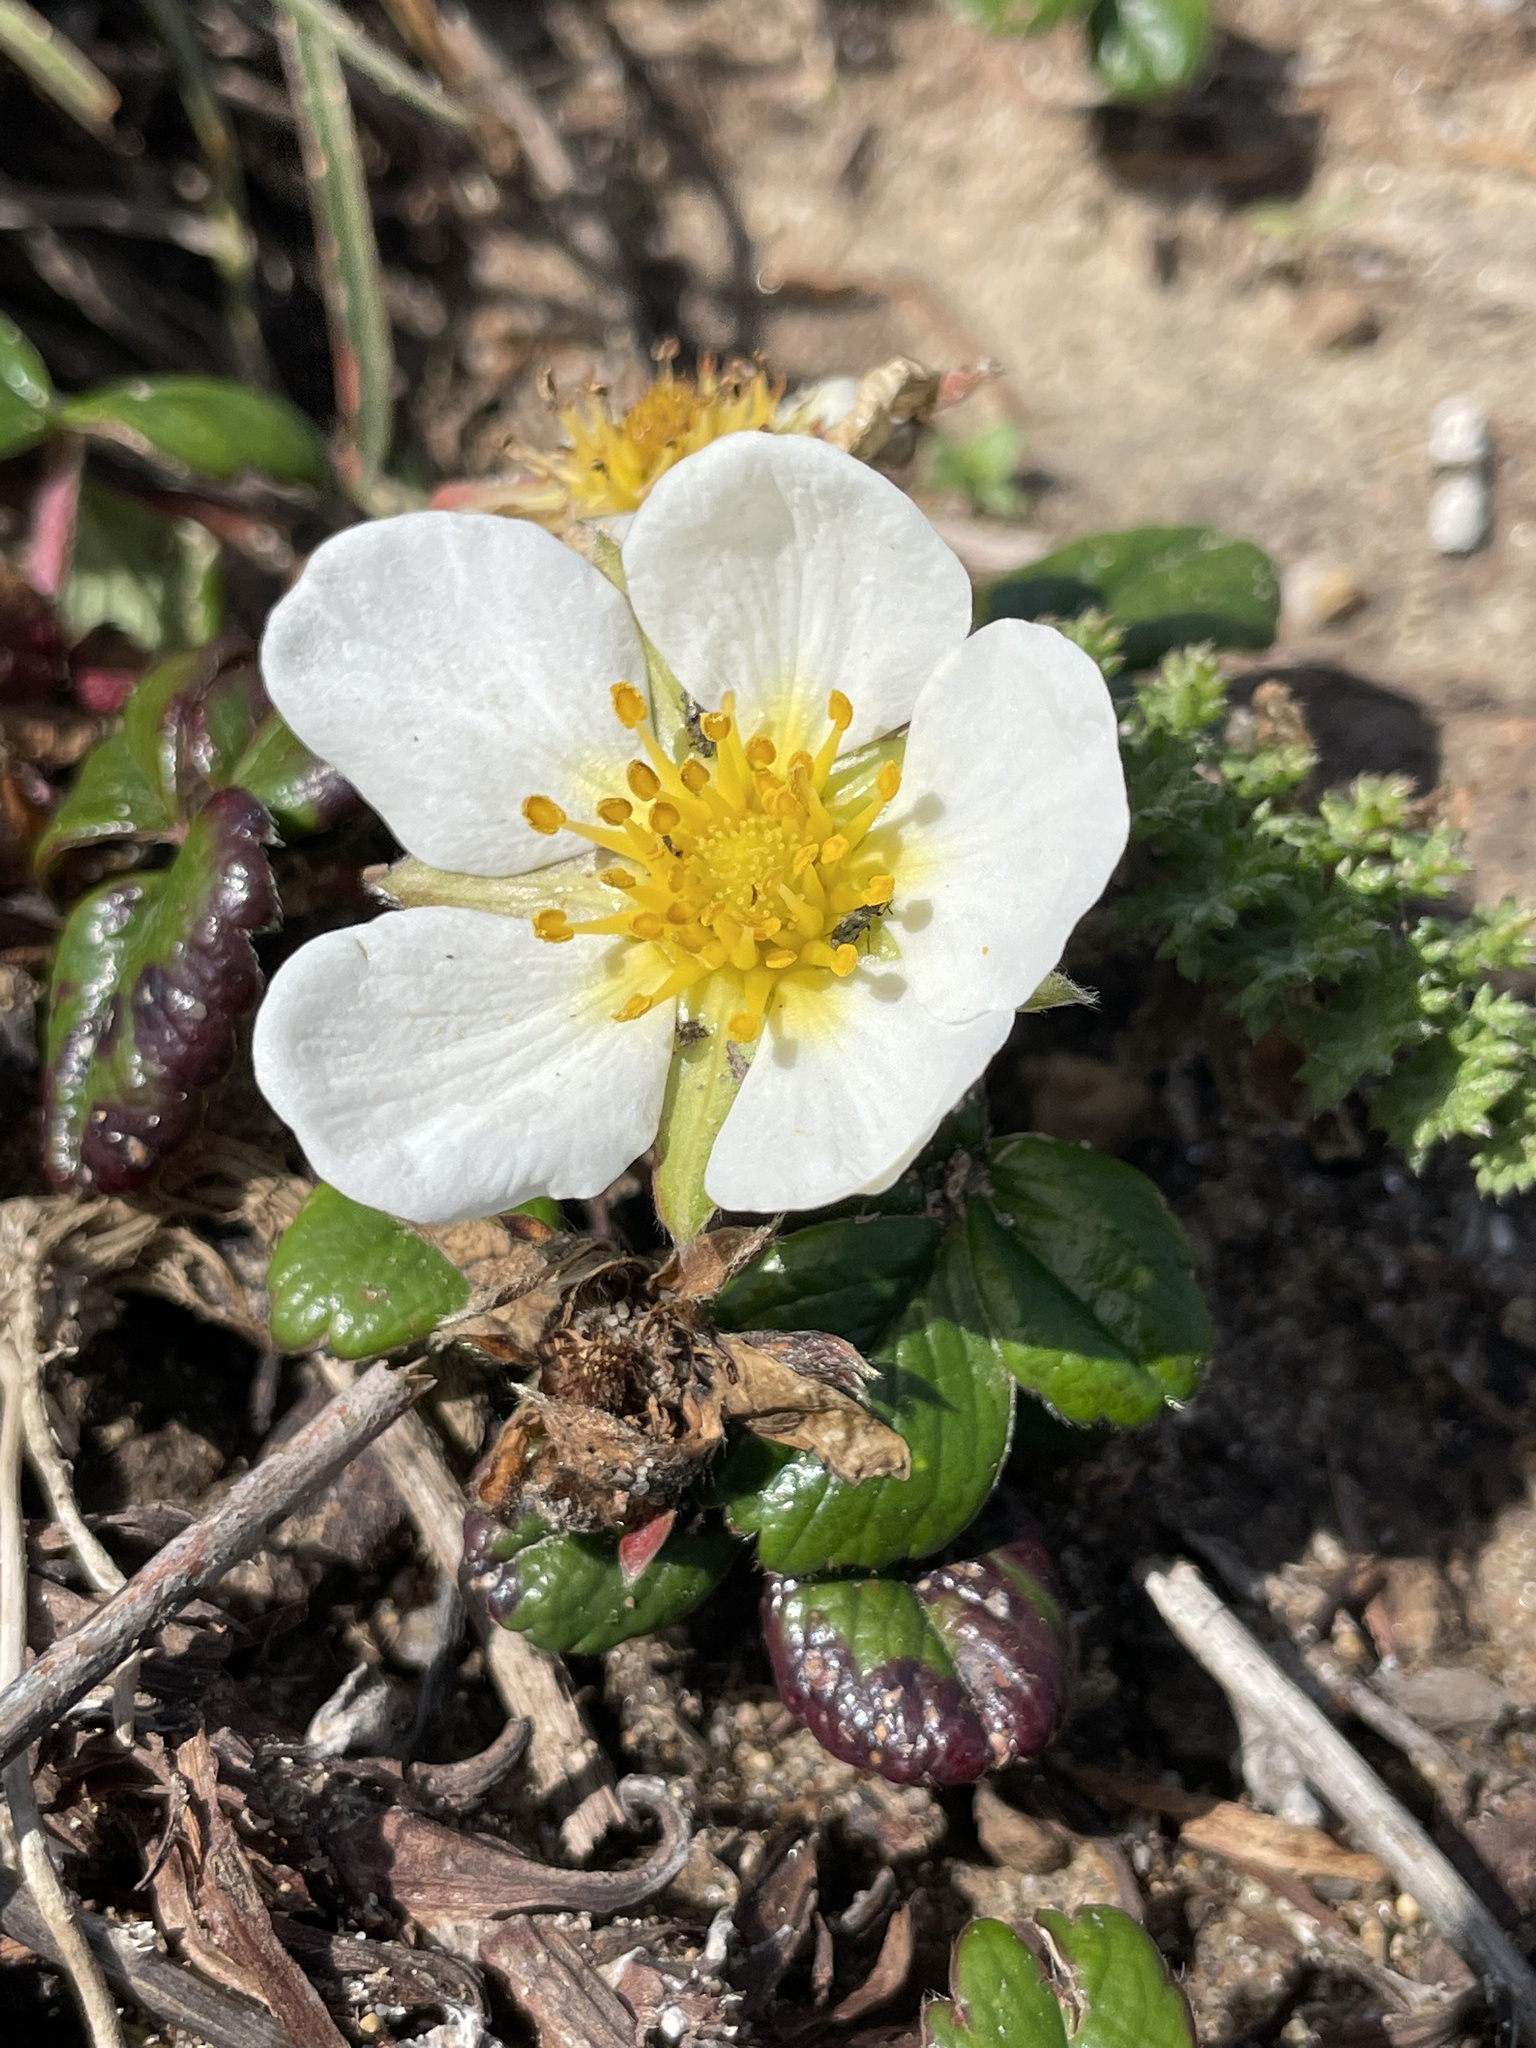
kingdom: Plantae
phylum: Tracheophyta
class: Magnoliopsida
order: Rosales
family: Rosaceae
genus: Fragaria
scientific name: Fragaria chiloensis
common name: Beach strawberry
